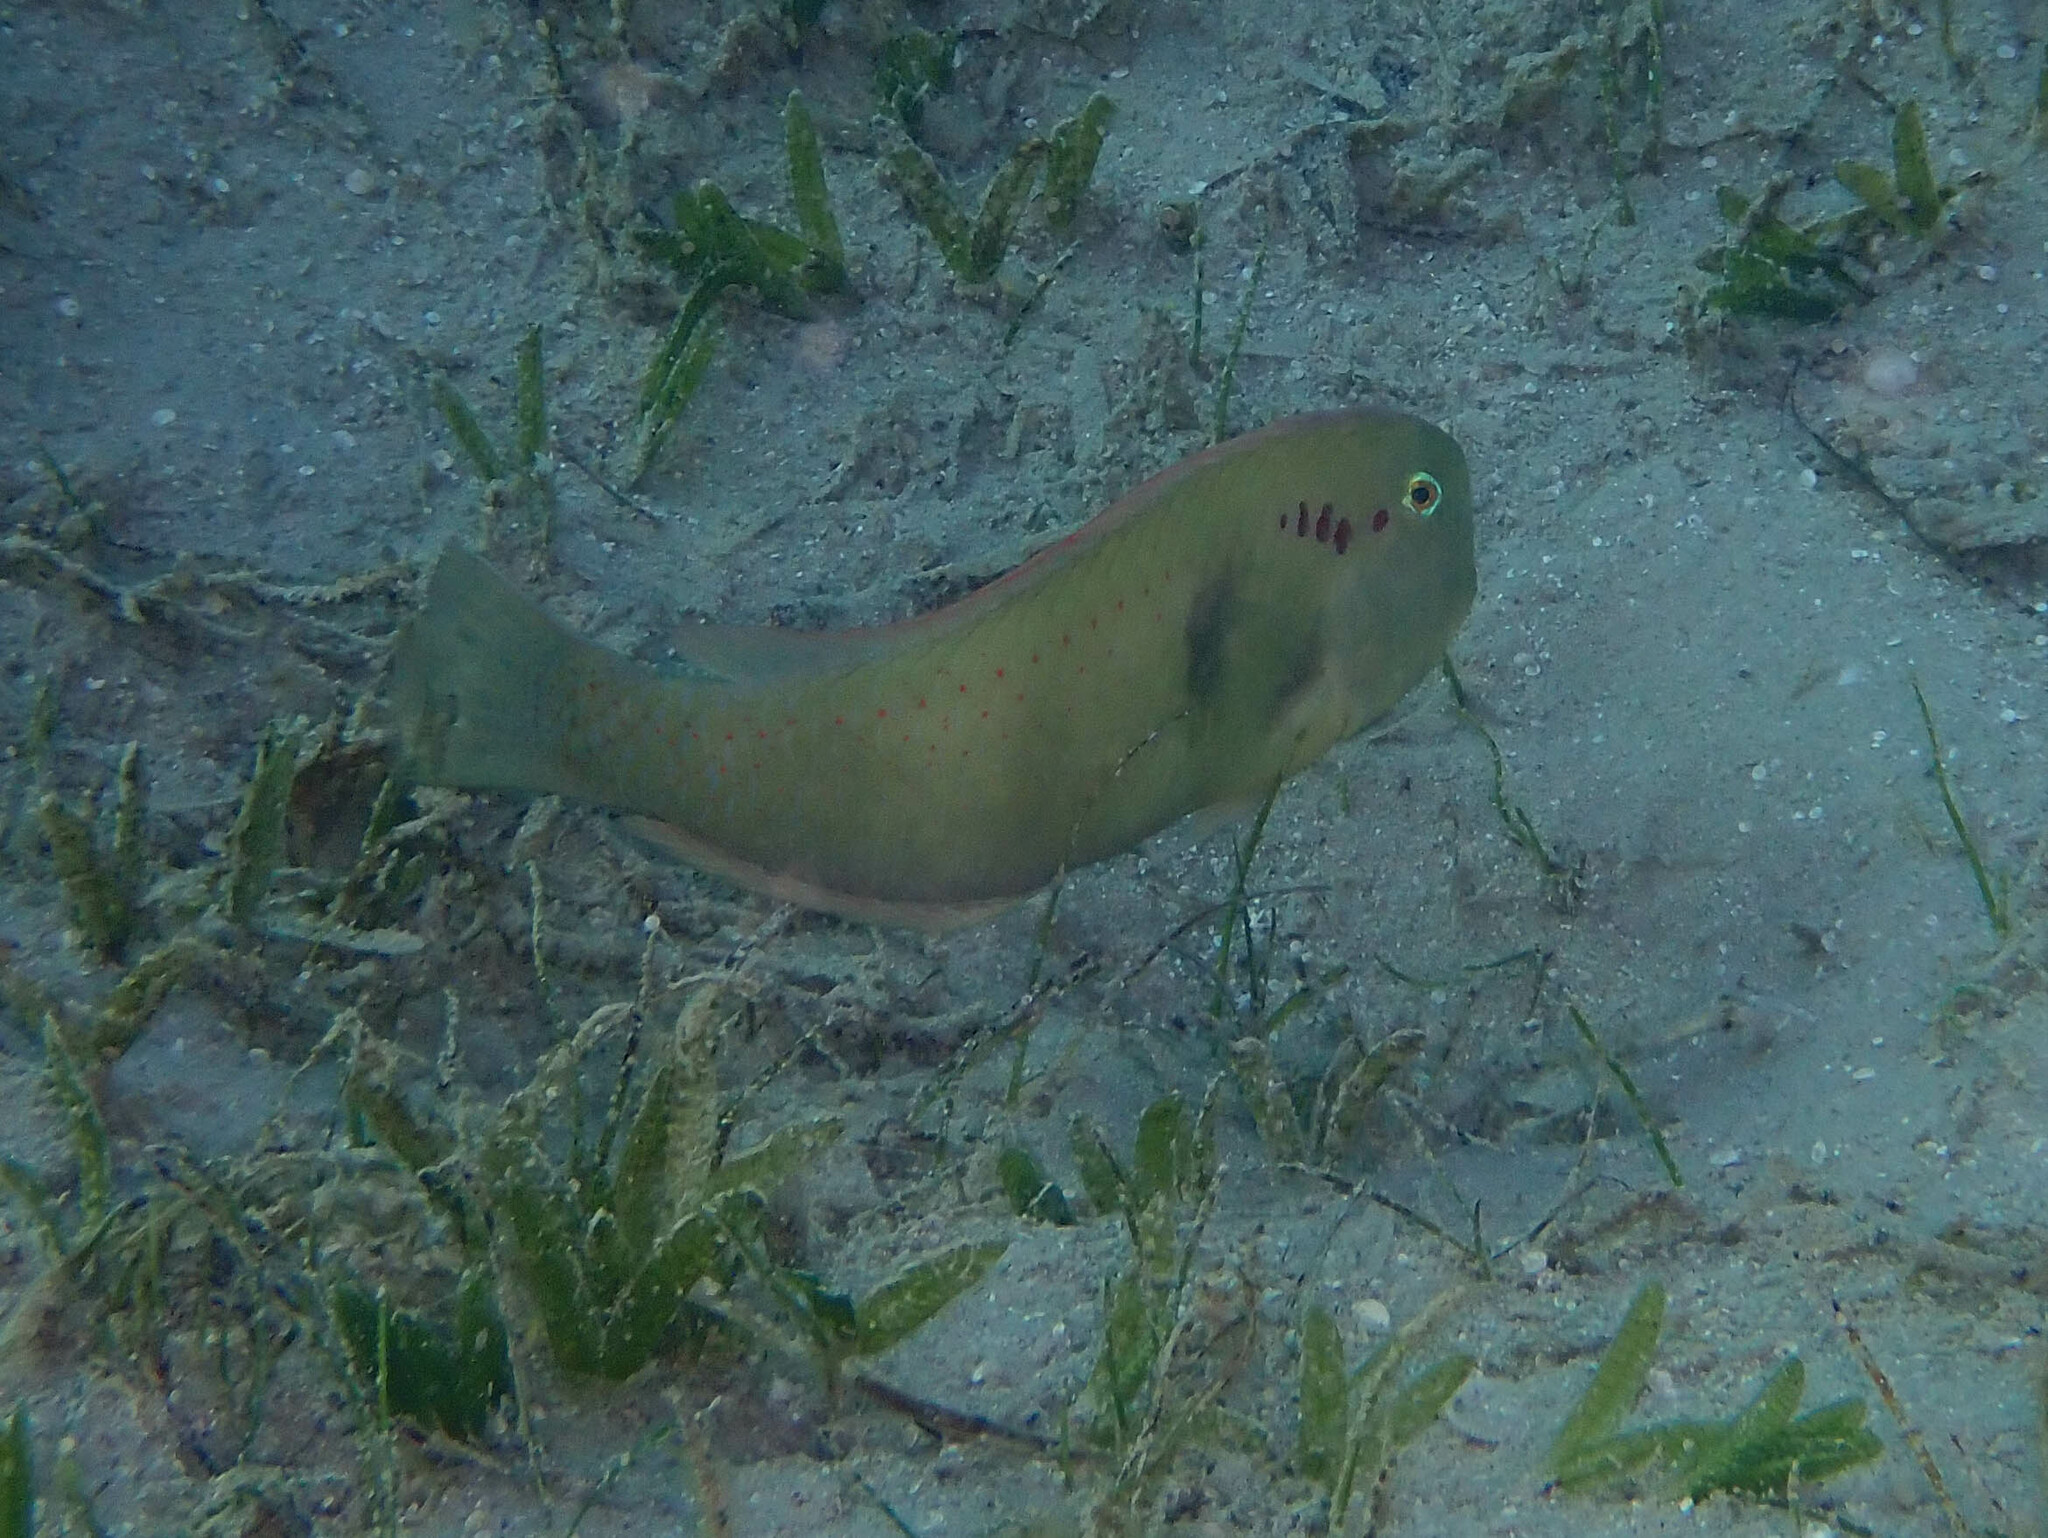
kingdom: Animalia
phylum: Chordata
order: Perciformes
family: Labridae
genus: Iniistius
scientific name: Iniistius pentadactylus
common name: Fivefinger razorfish
